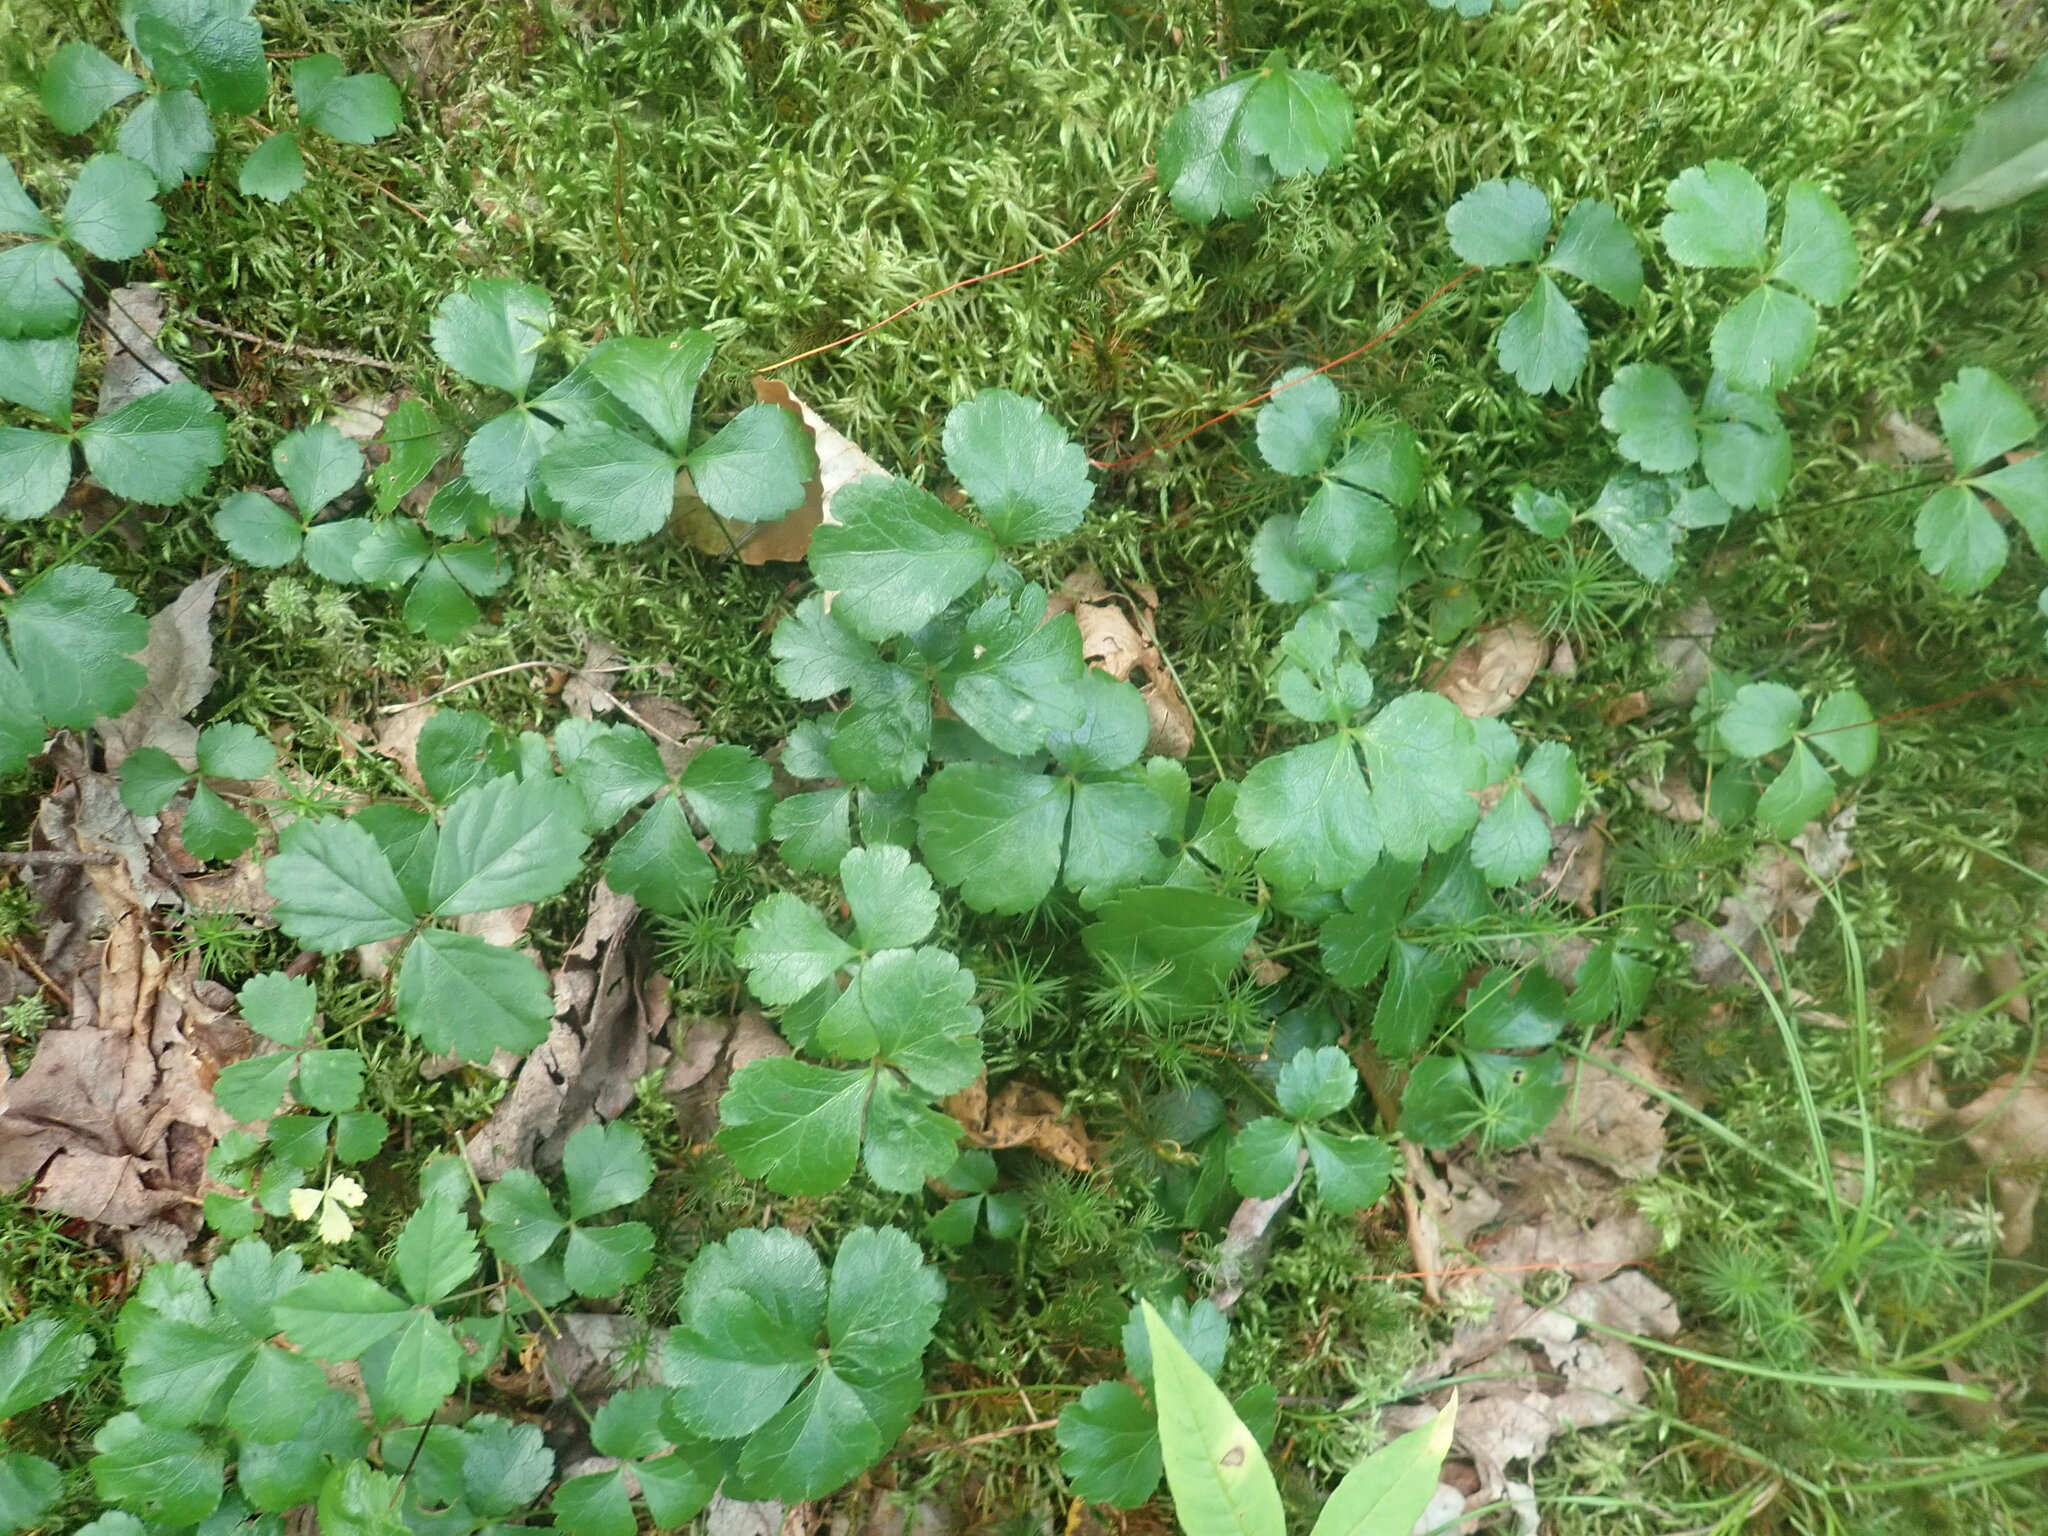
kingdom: Plantae
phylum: Tracheophyta
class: Magnoliopsida
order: Ranunculales
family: Ranunculaceae
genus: Coptis
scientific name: Coptis trifolia
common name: Canker-root
